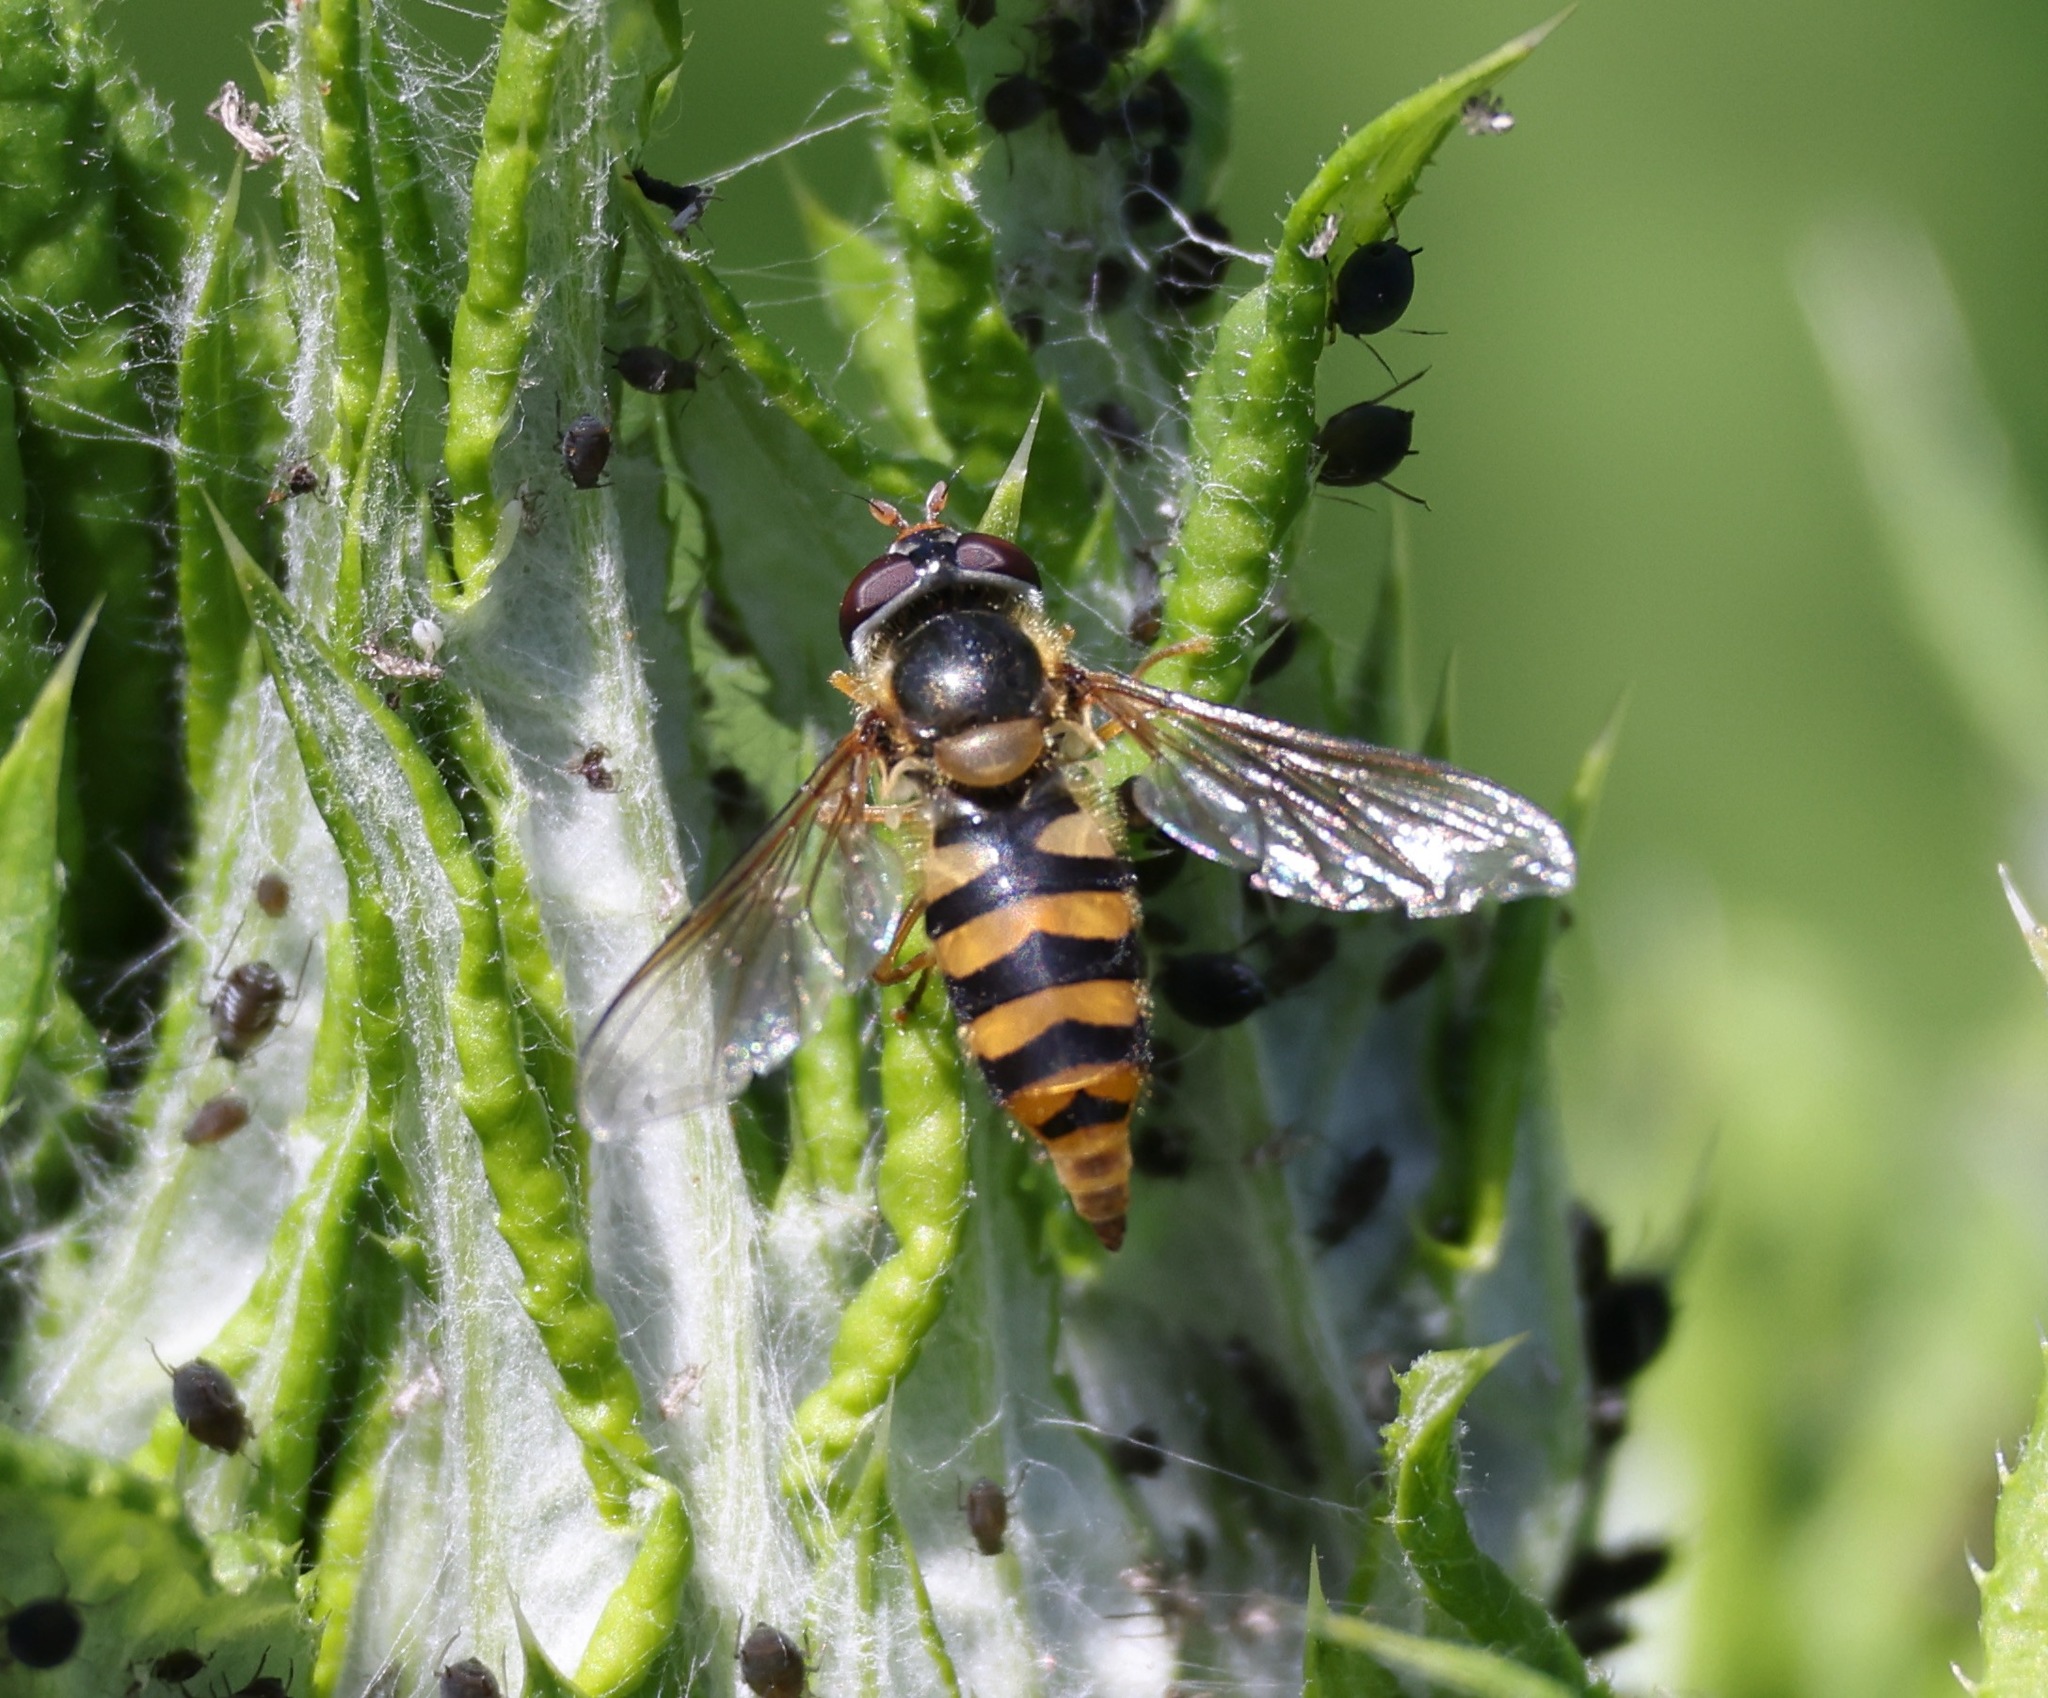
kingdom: Animalia
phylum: Arthropoda
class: Insecta
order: Diptera
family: Syrphidae
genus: Epistrophe
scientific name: Epistrophe nitidicollis
